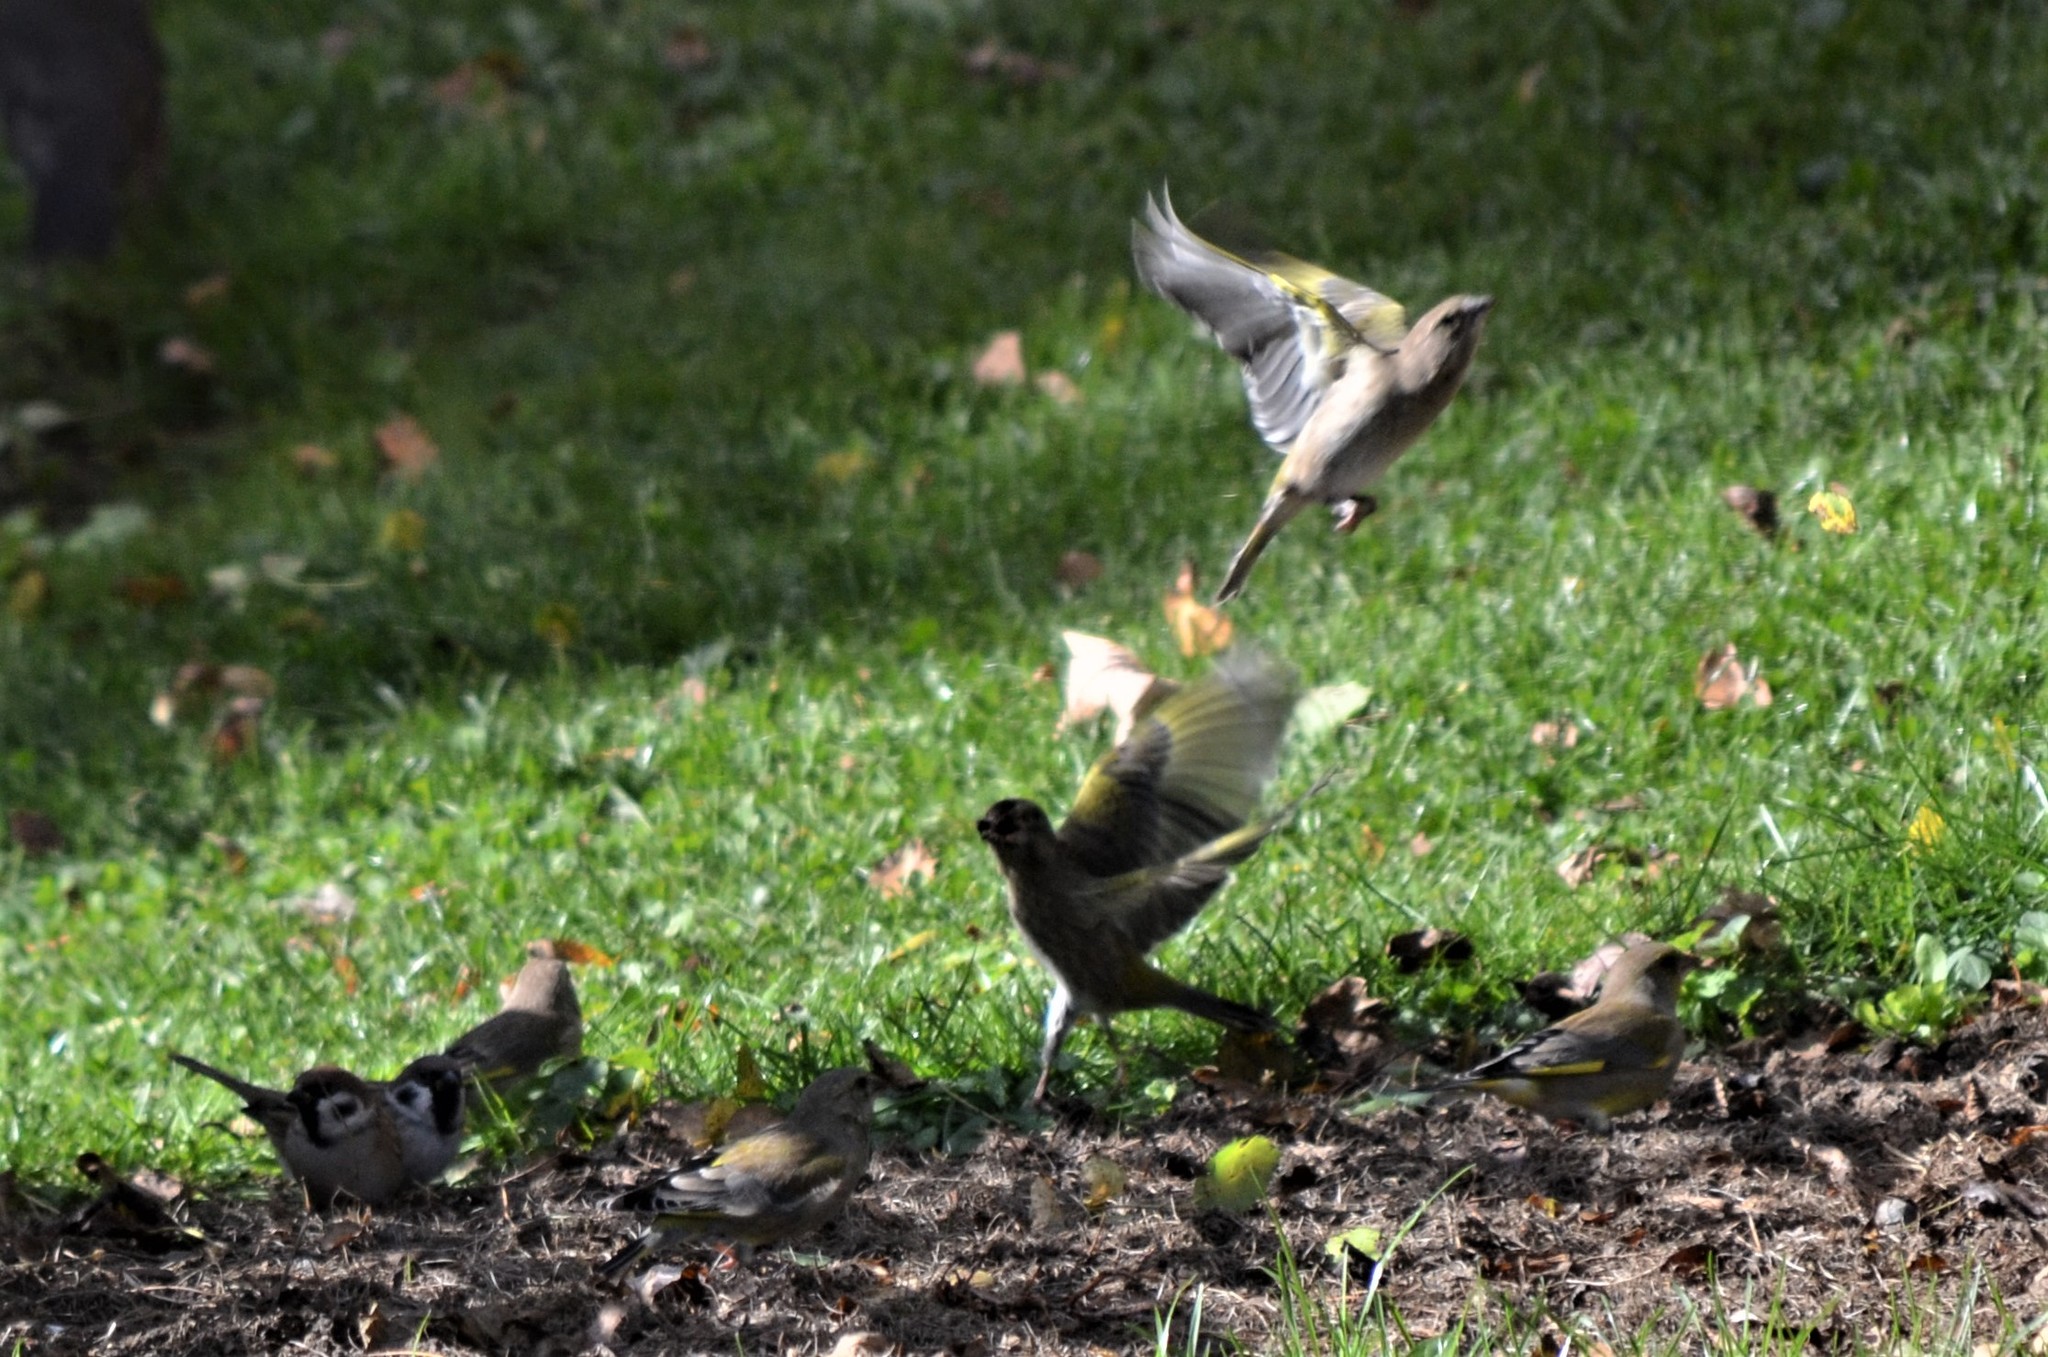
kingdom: Plantae
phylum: Tracheophyta
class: Liliopsida
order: Poales
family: Poaceae
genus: Chloris
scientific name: Chloris chloris
